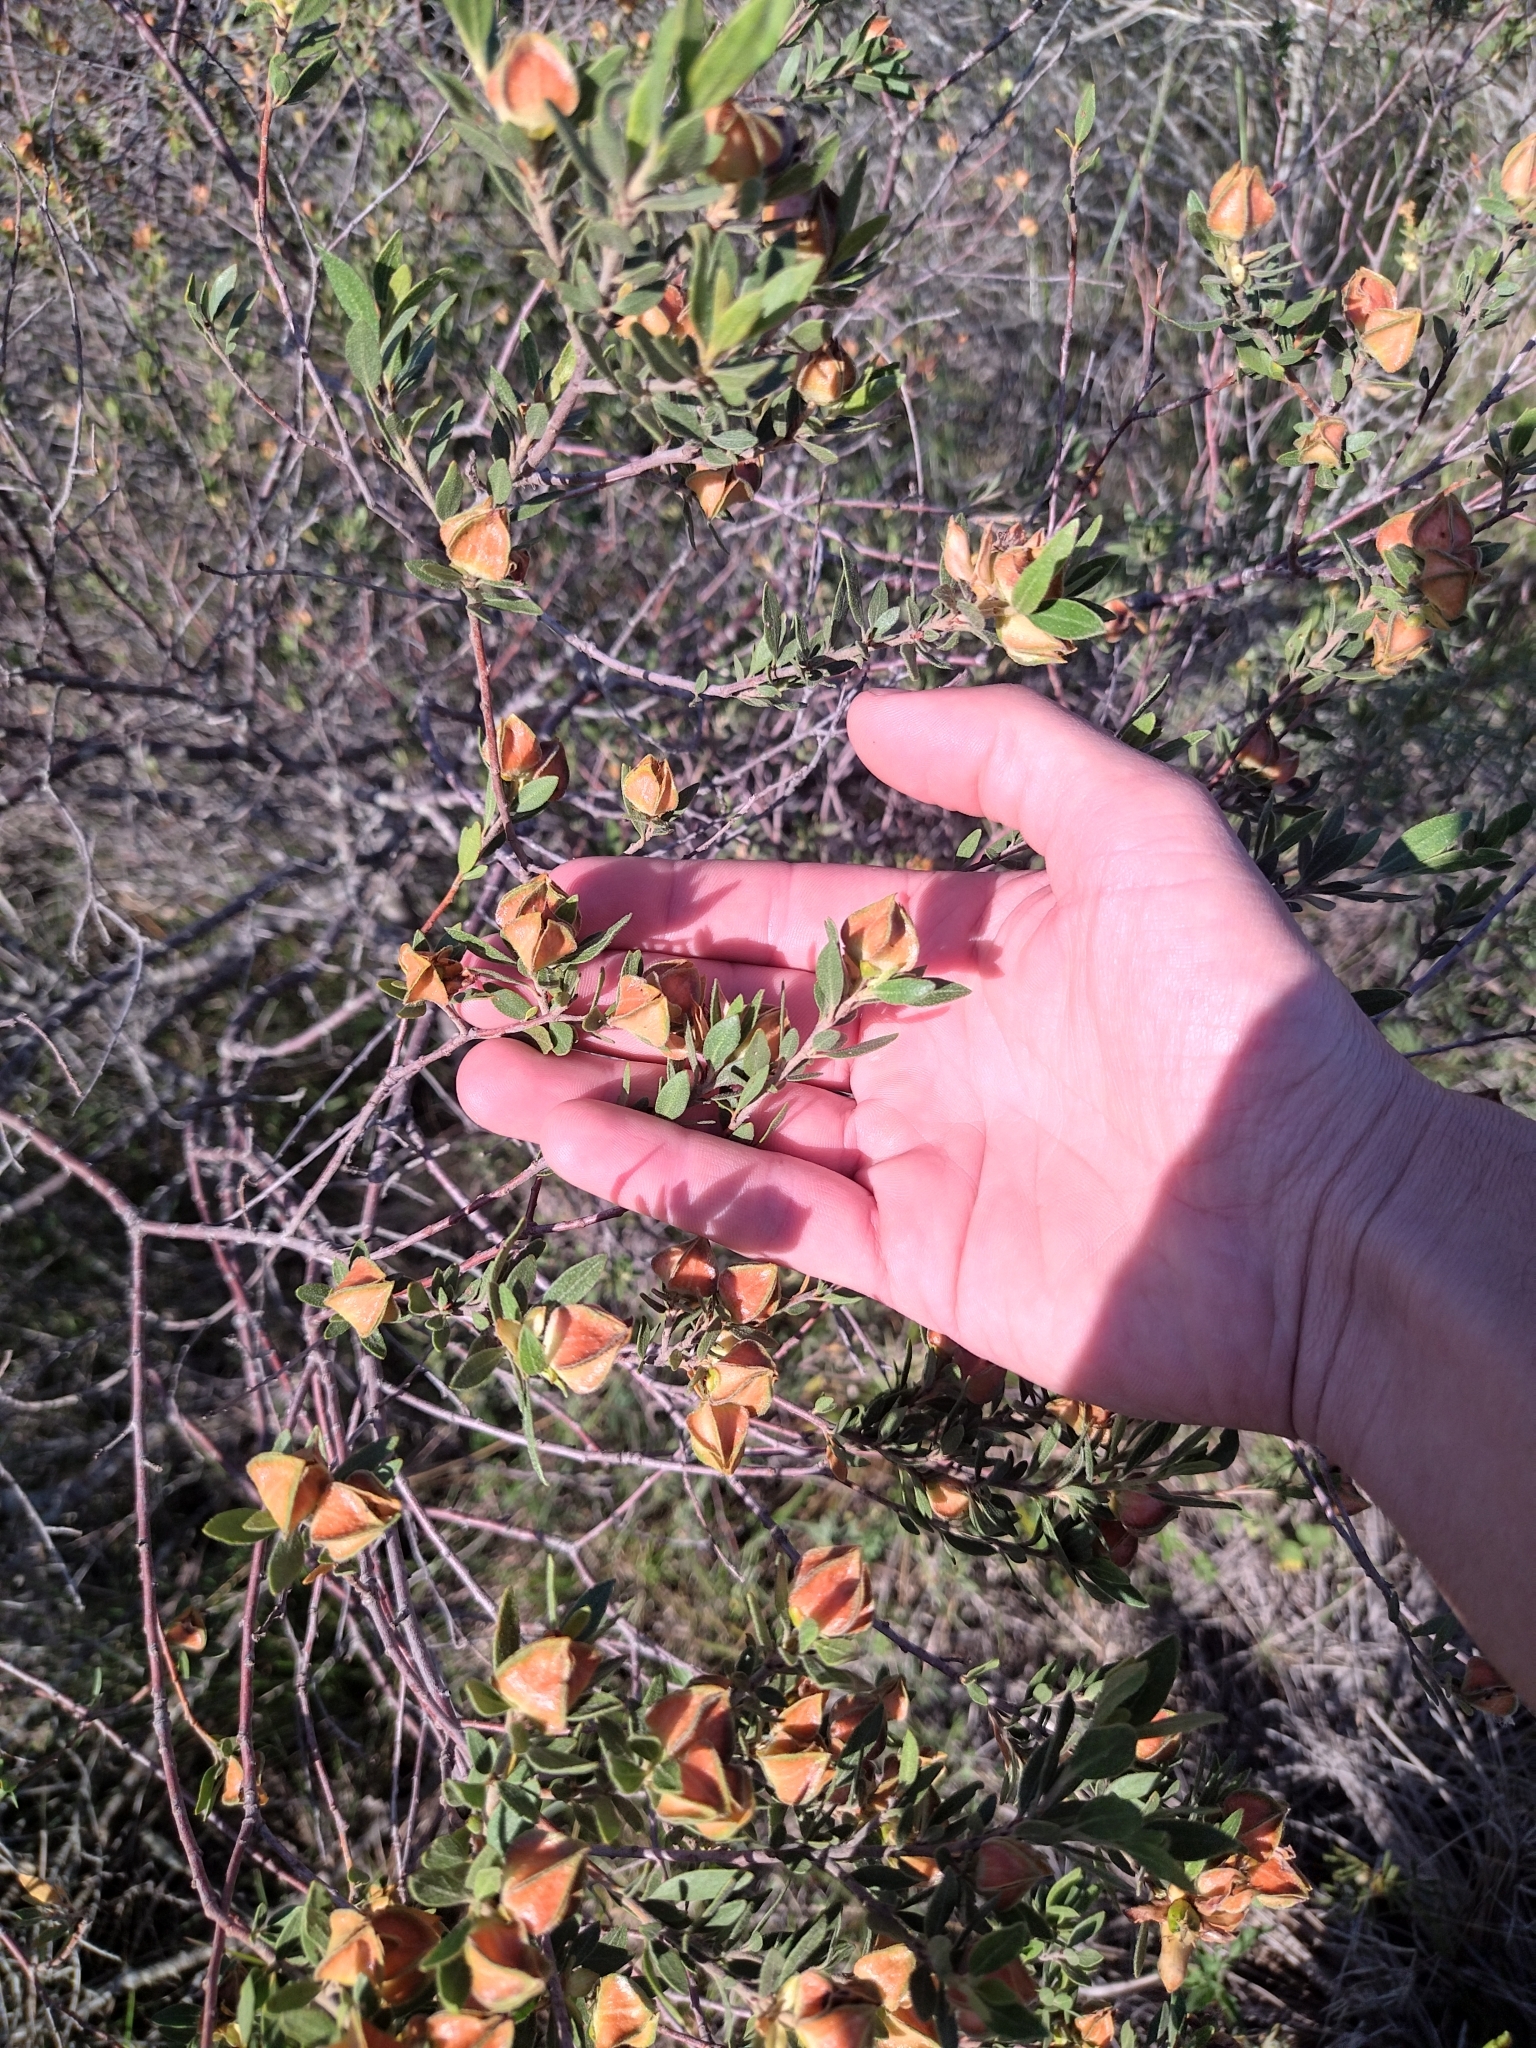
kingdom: Plantae
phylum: Tracheophyta
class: Magnoliopsida
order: Malpighiales
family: Euphorbiaceae
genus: Croton
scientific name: Croton montevidensis
